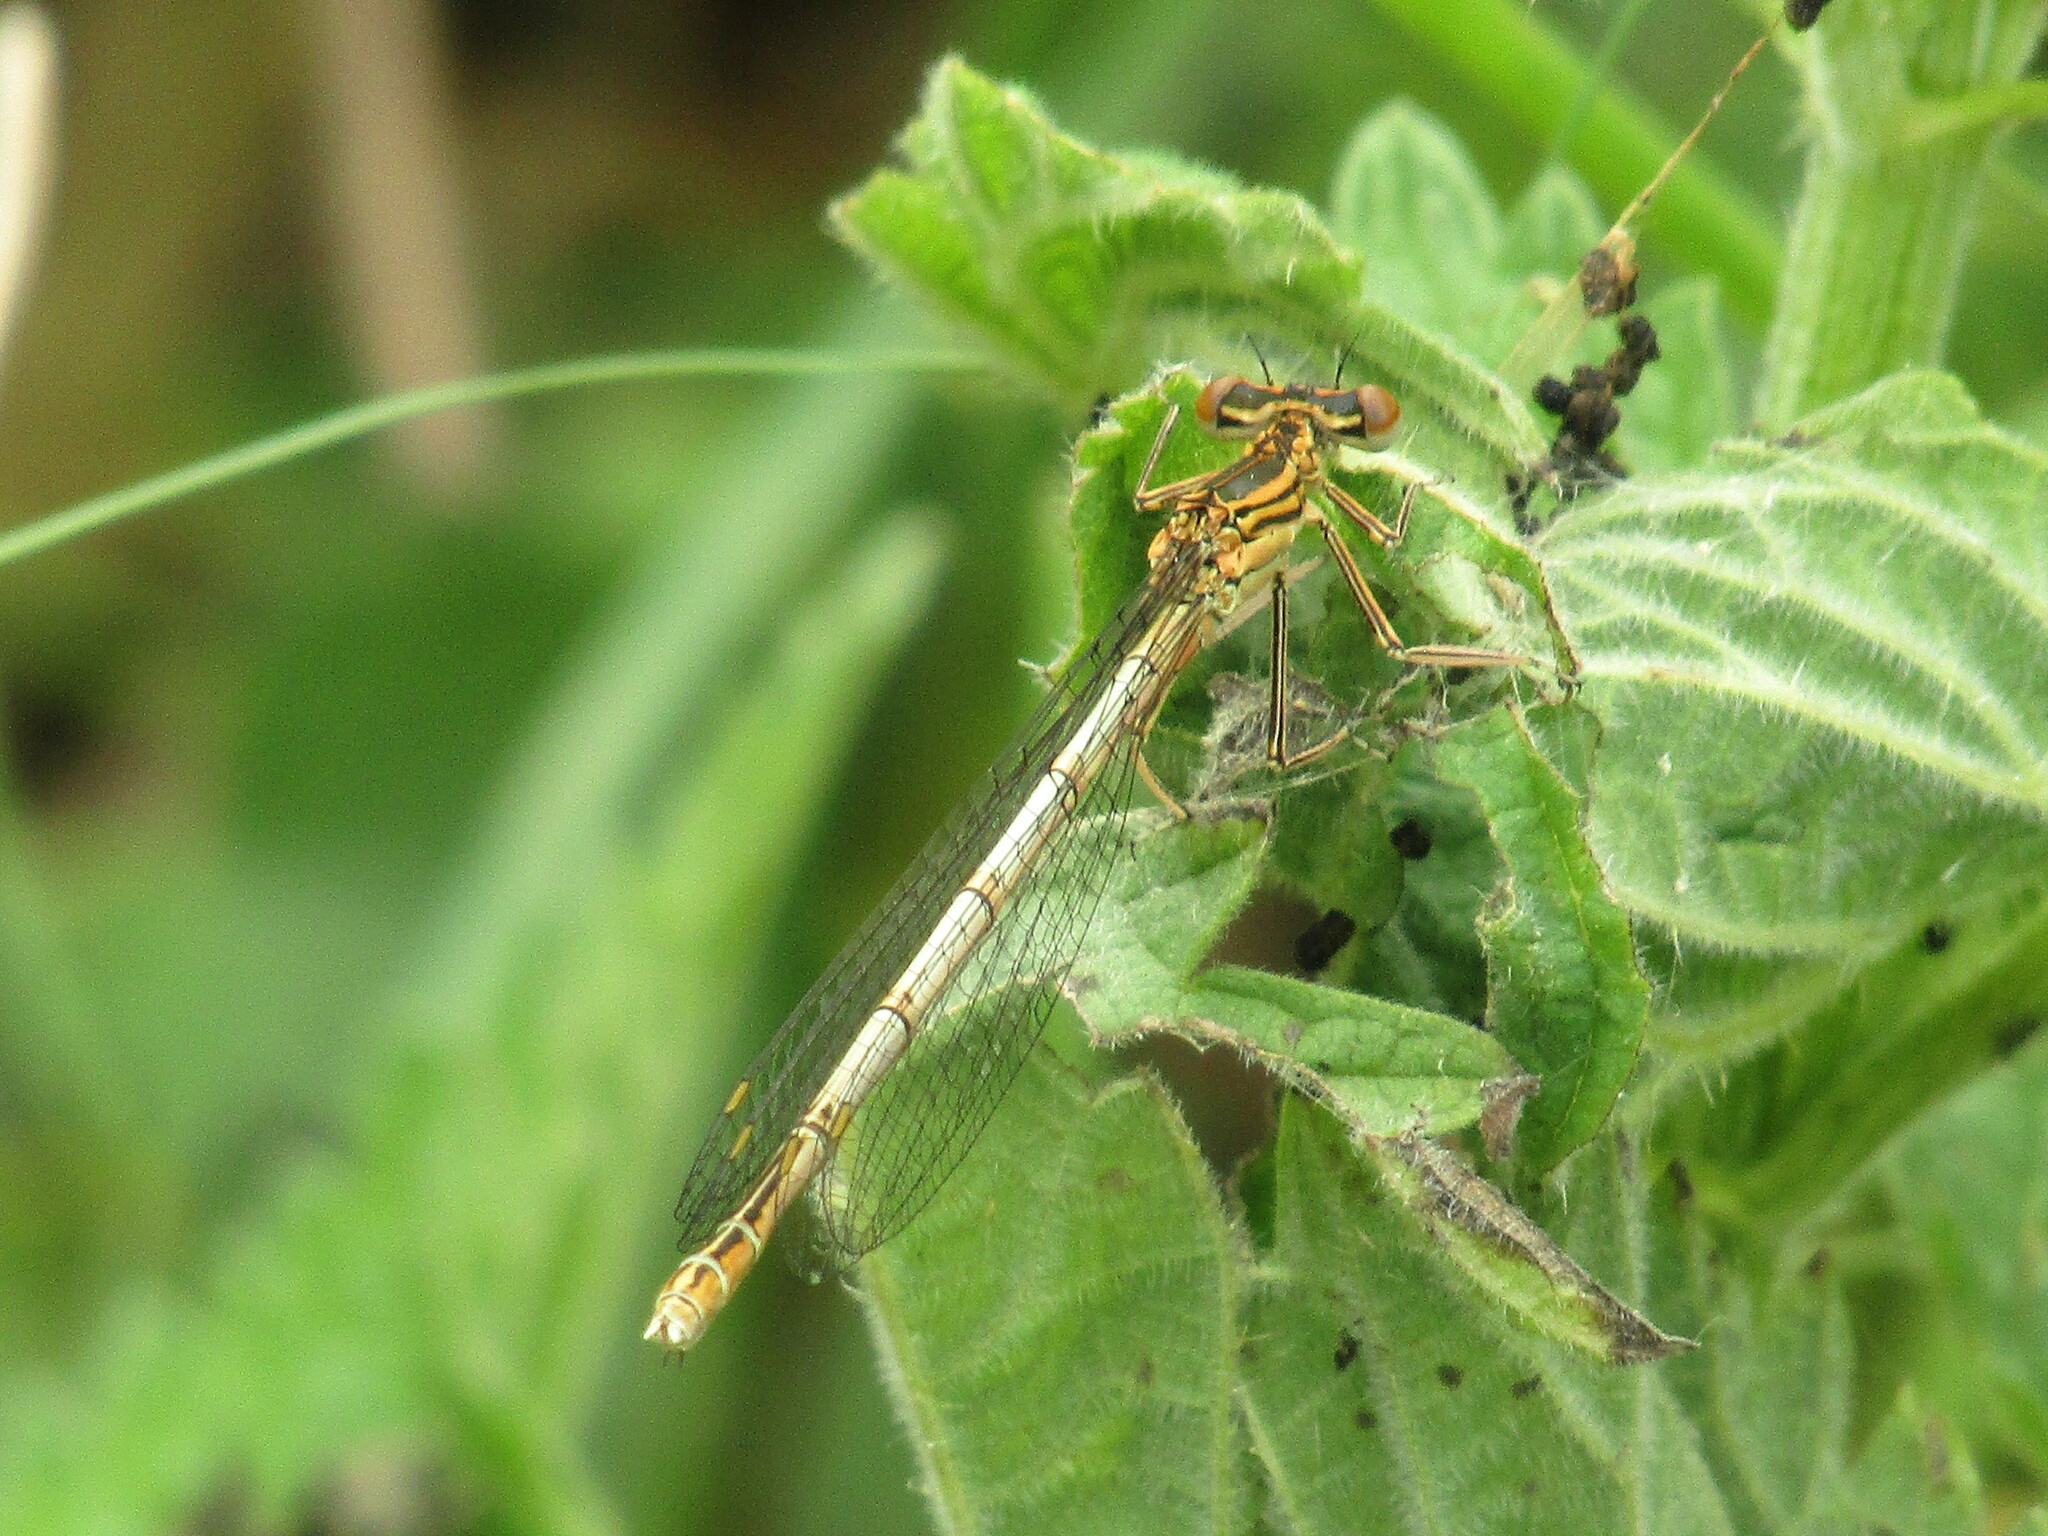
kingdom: Animalia
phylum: Arthropoda
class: Insecta
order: Odonata
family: Platycnemididae
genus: Platycnemis
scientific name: Platycnemis pennipes
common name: White-legged damselfly
